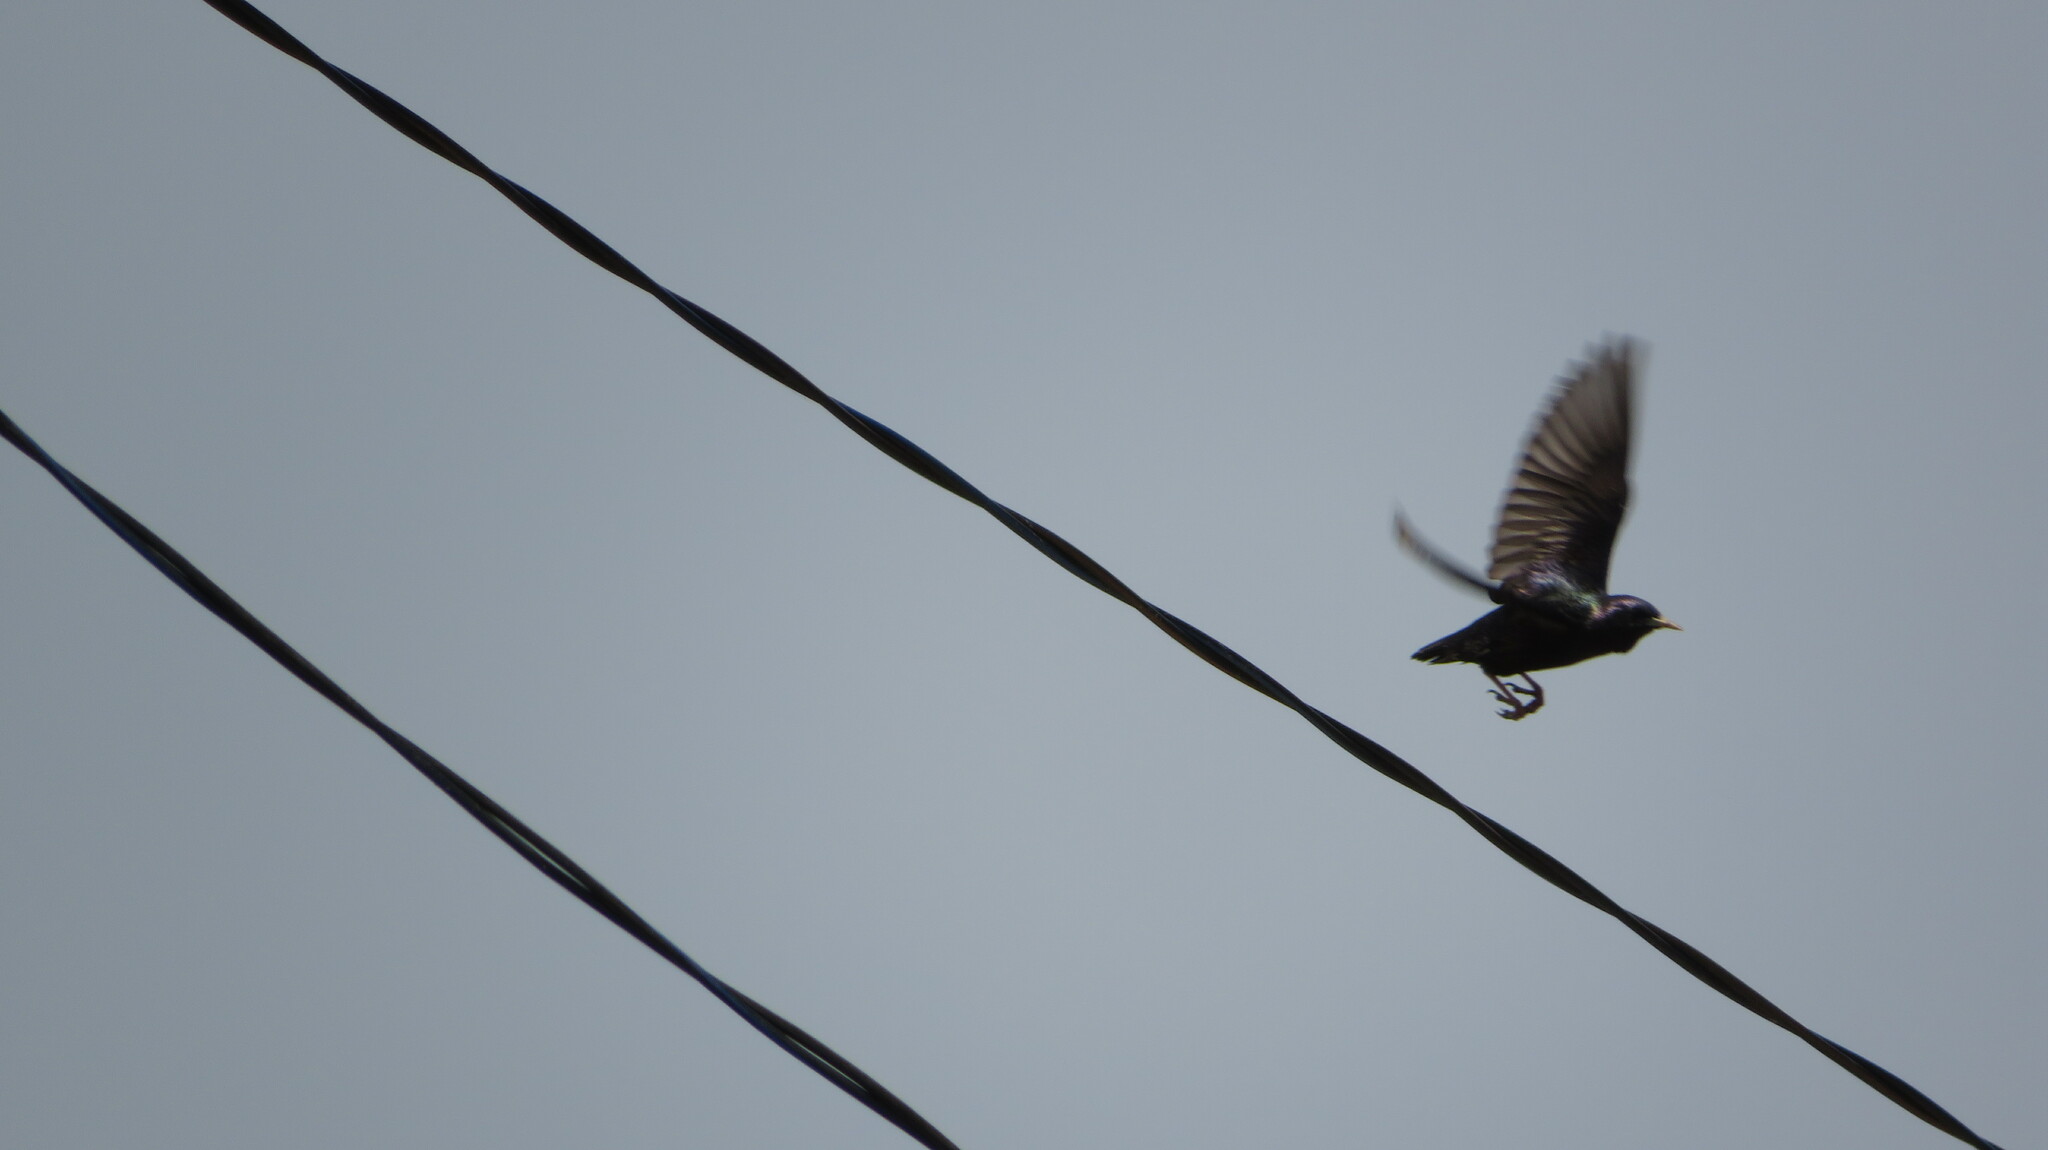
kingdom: Animalia
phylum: Chordata
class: Aves
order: Passeriformes
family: Sturnidae
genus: Sturnus
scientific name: Sturnus vulgaris
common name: Common starling
